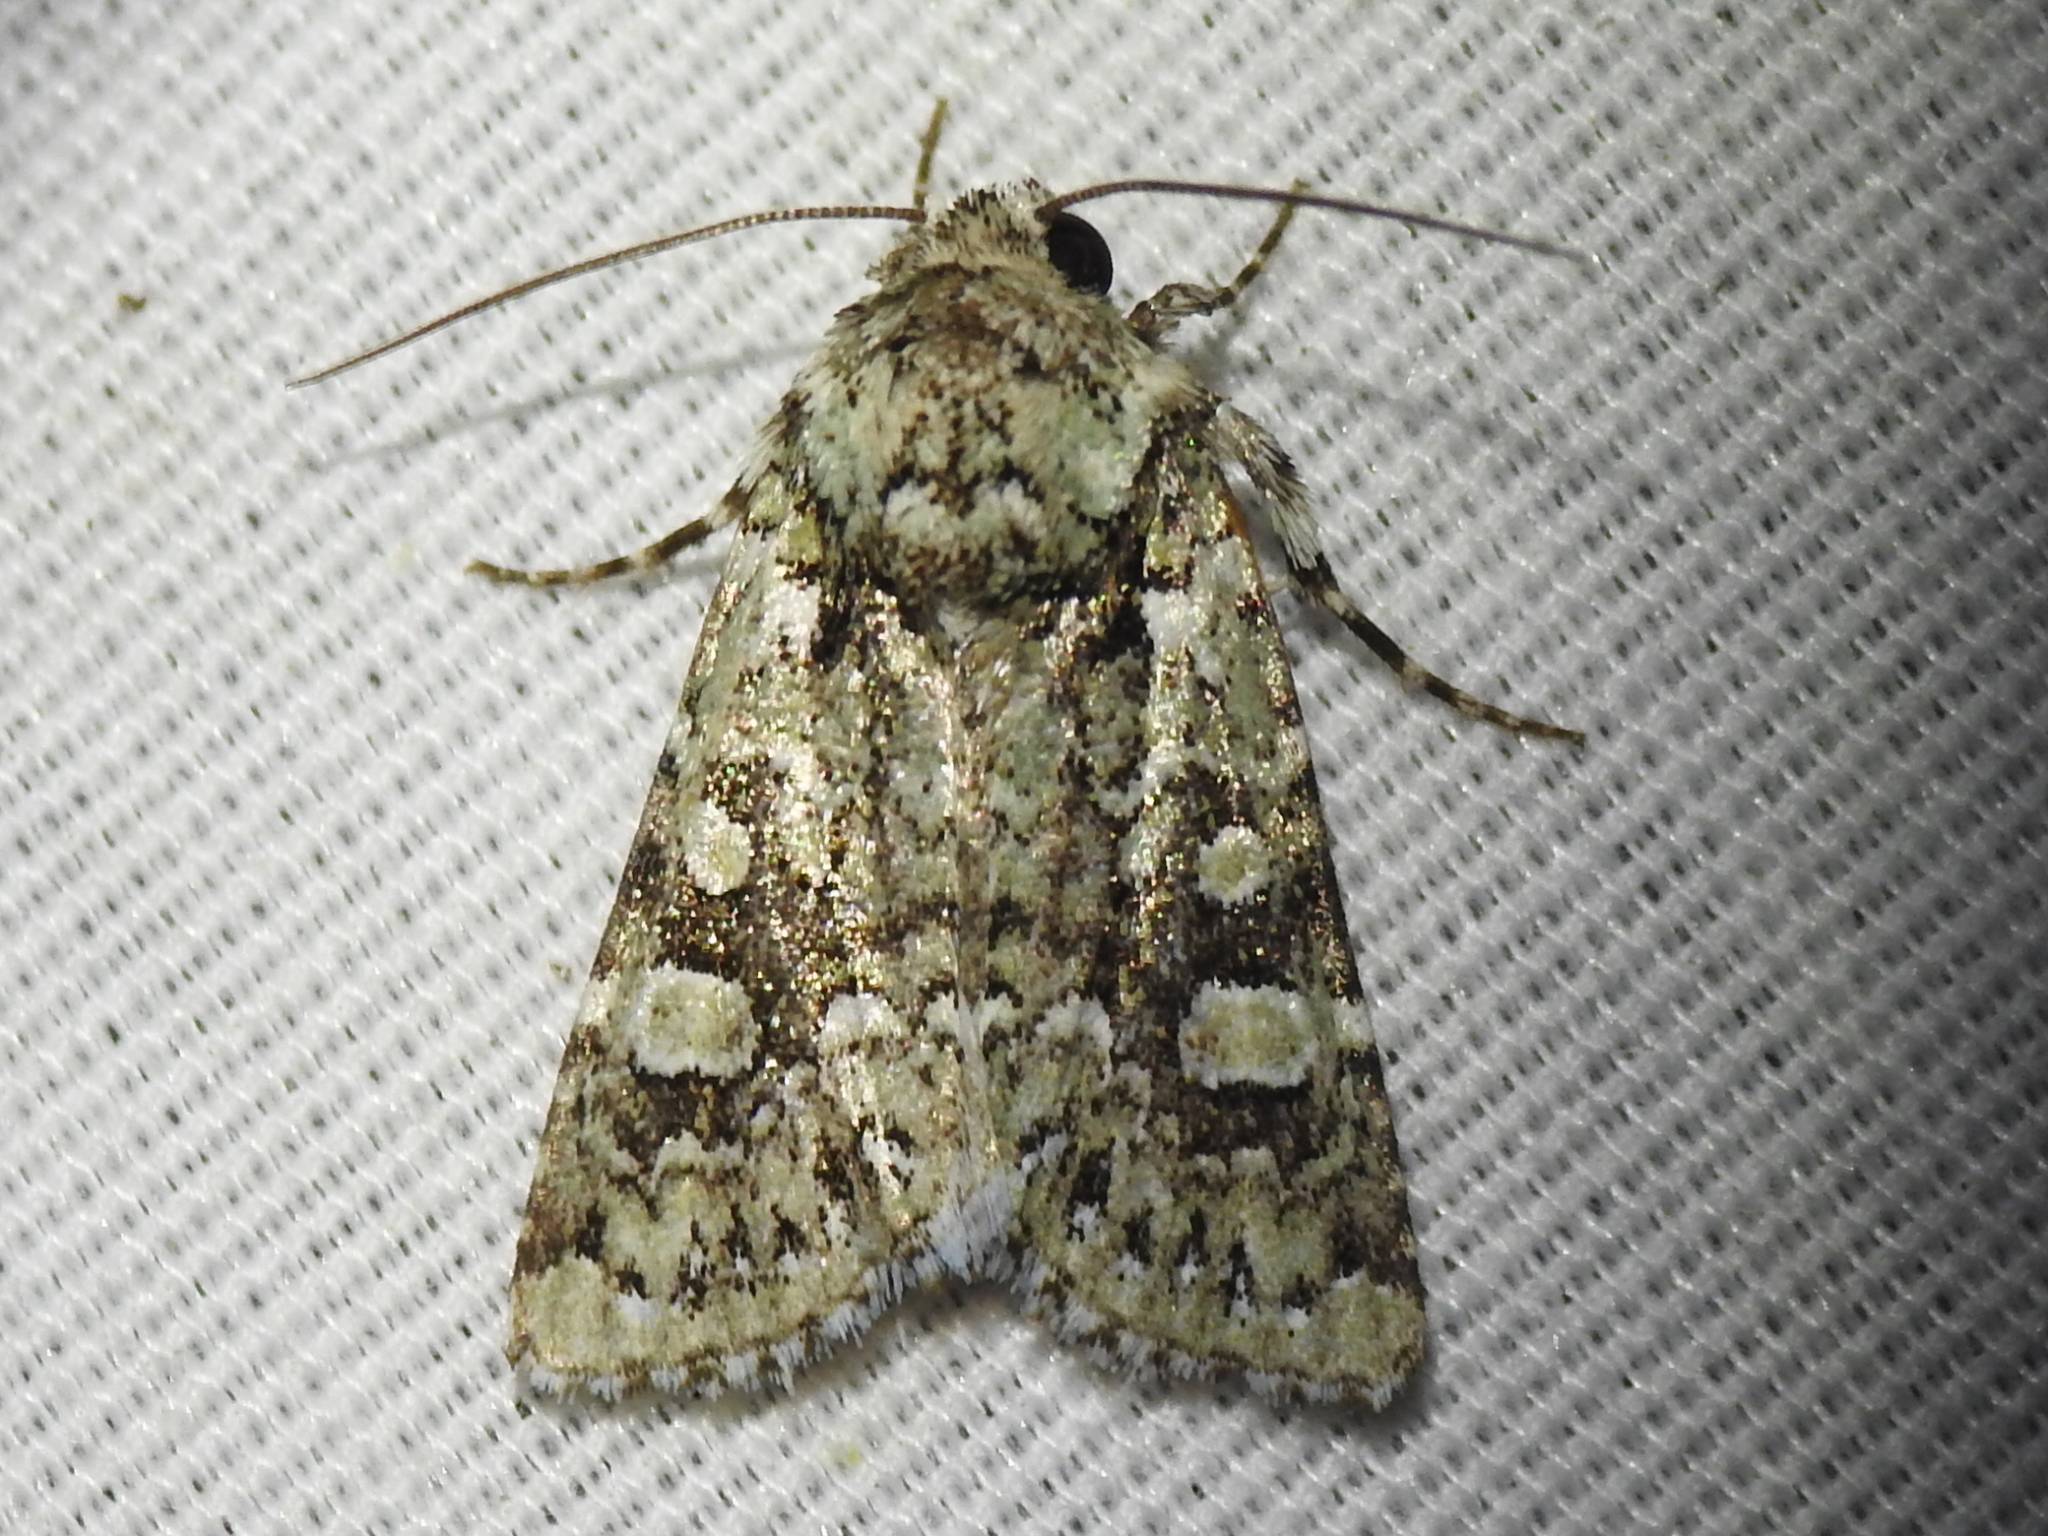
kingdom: Animalia
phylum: Arthropoda
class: Insecta
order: Lepidoptera
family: Noctuidae
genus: Lacinipolia
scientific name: Lacinipolia laudabilis
